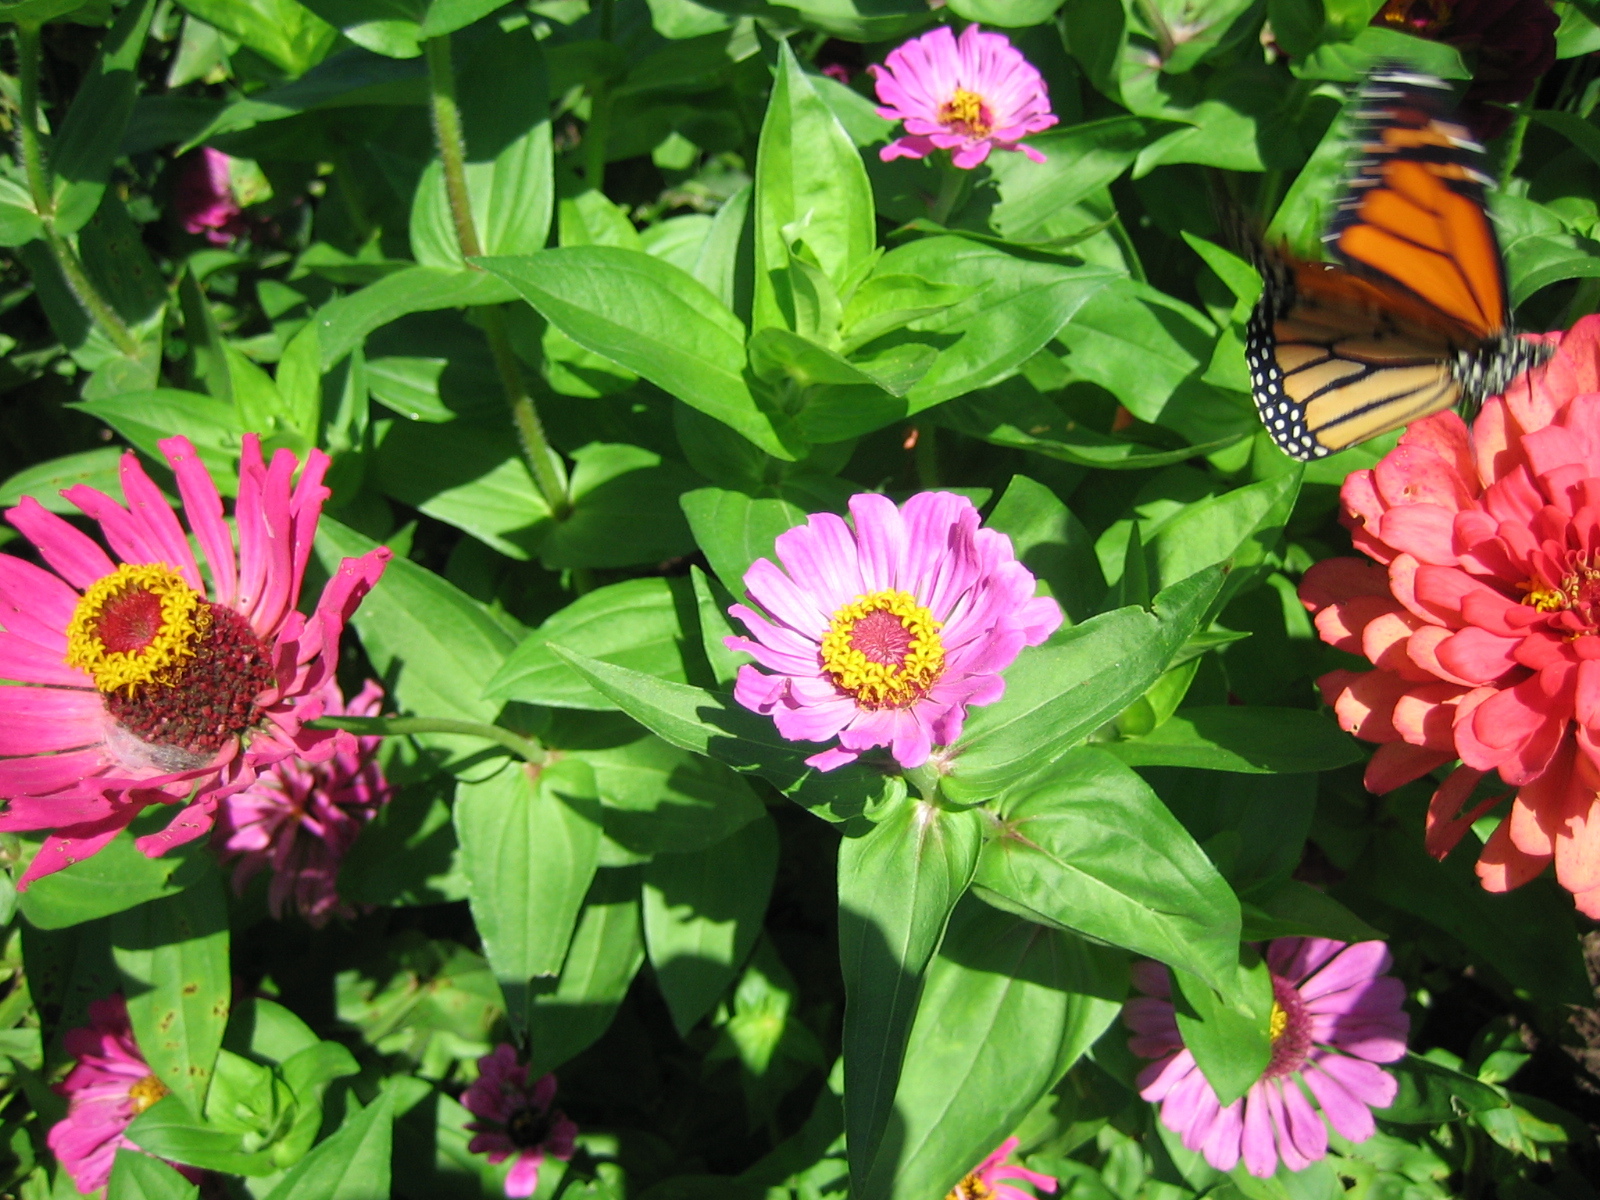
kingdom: Animalia
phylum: Arthropoda
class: Insecta
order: Lepidoptera
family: Nymphalidae
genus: Danaus
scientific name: Danaus plexippus
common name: Monarch
